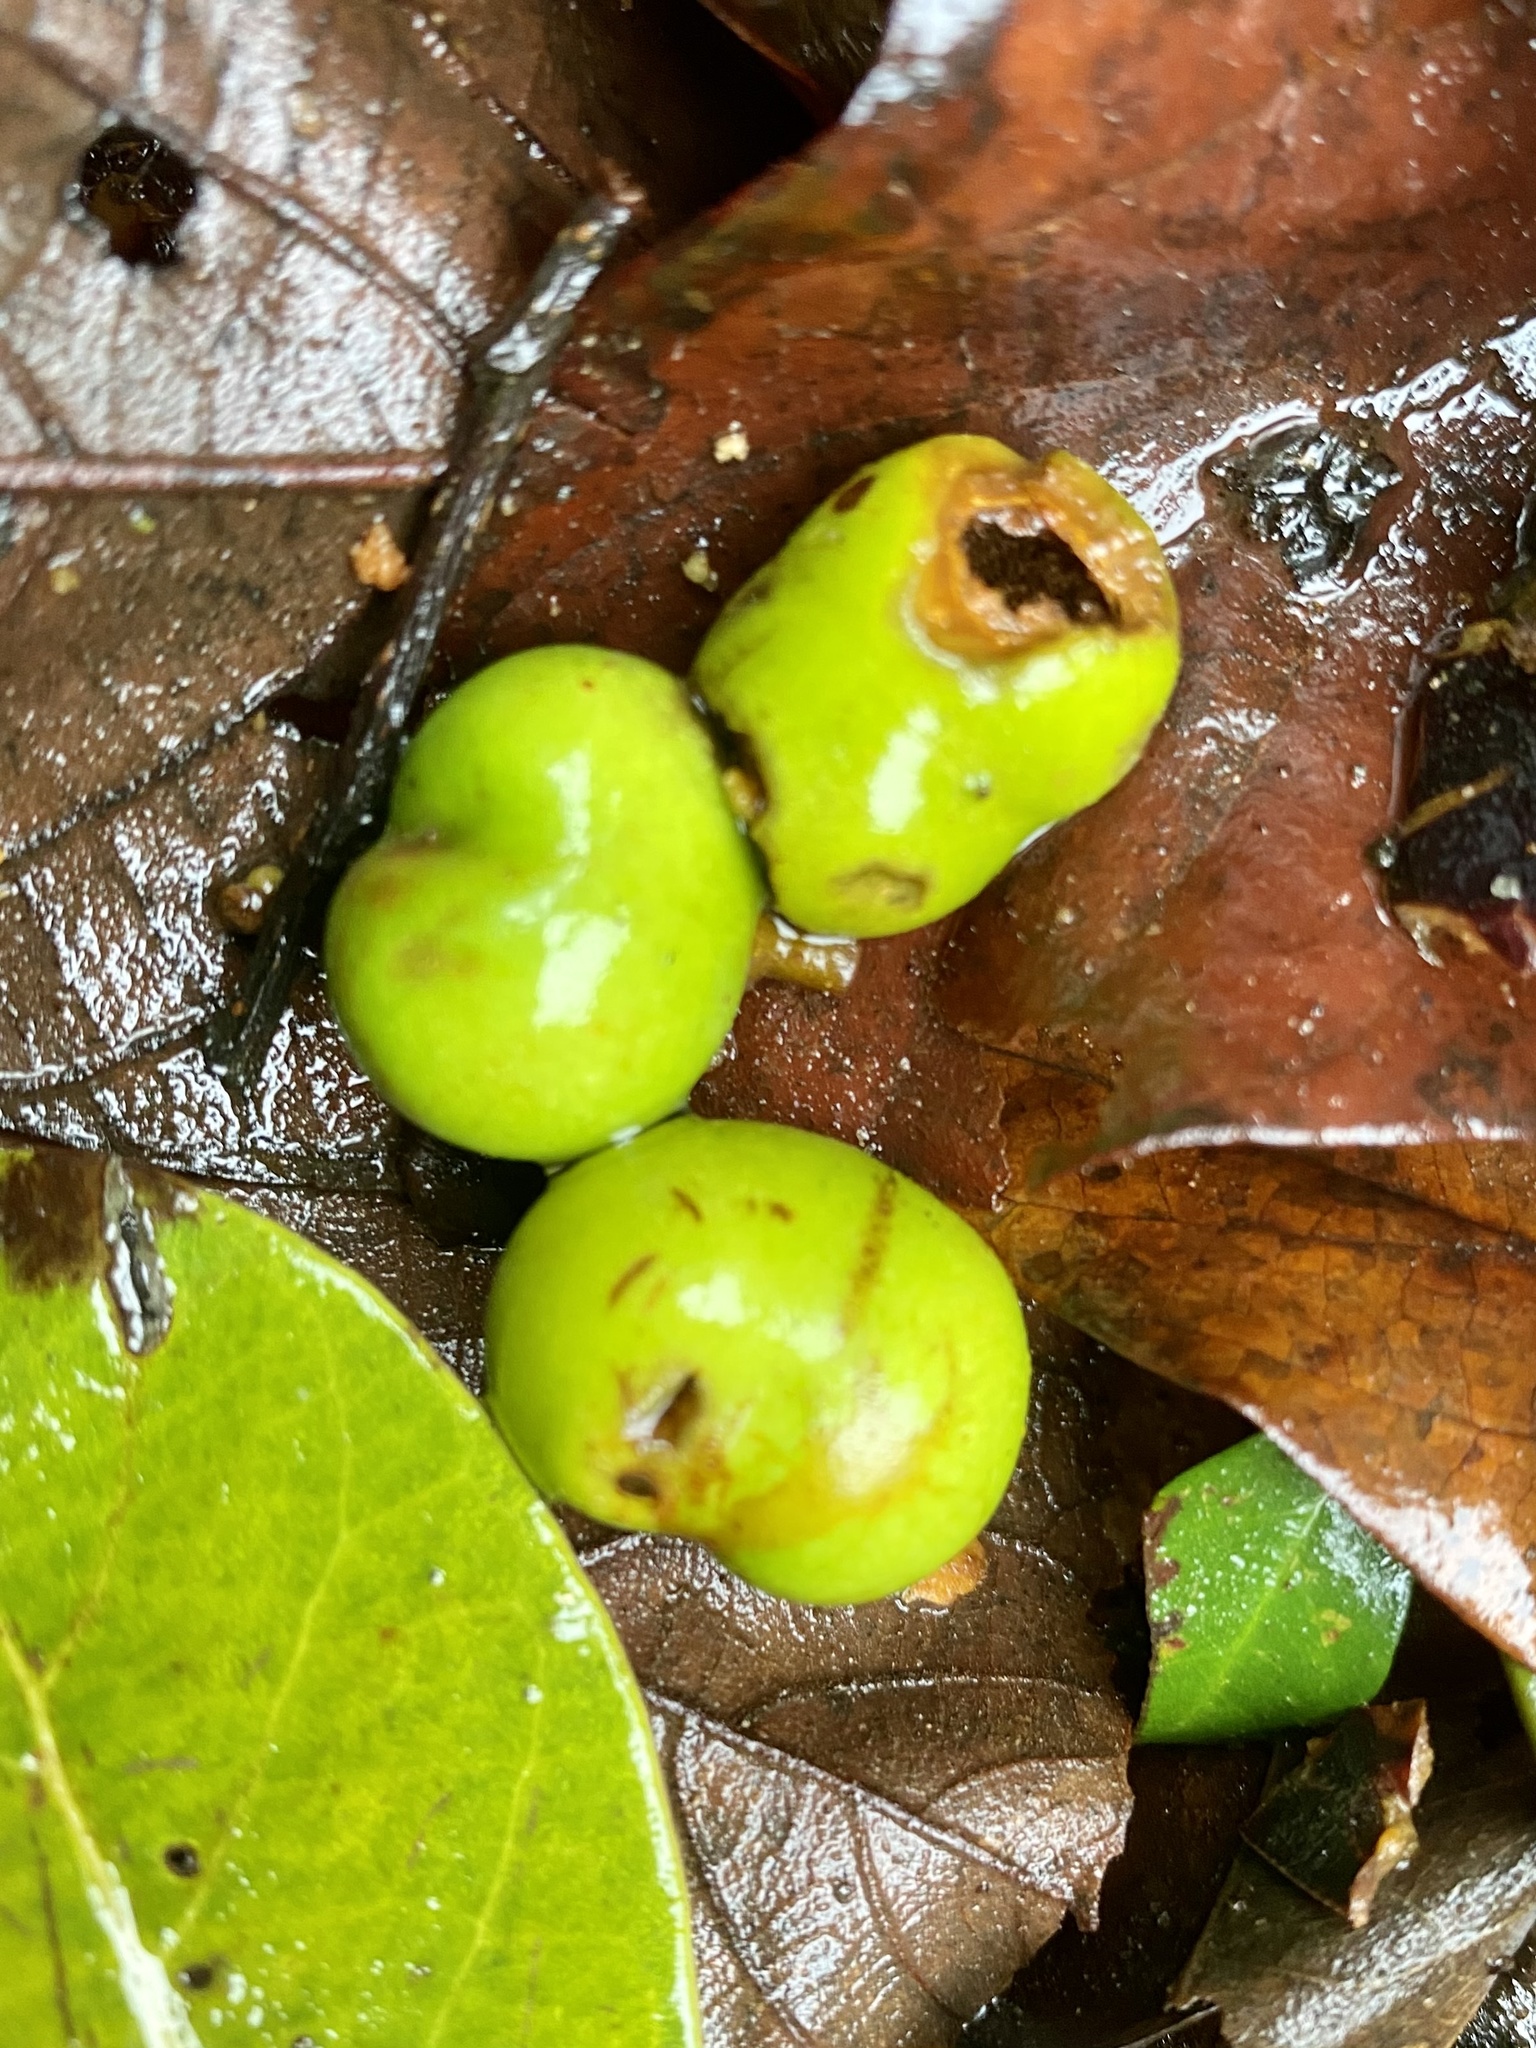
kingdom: Plantae
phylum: Tracheophyta
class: Magnoliopsida
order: Rosales
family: Rosaceae
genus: Prunus
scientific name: Prunus arborea
